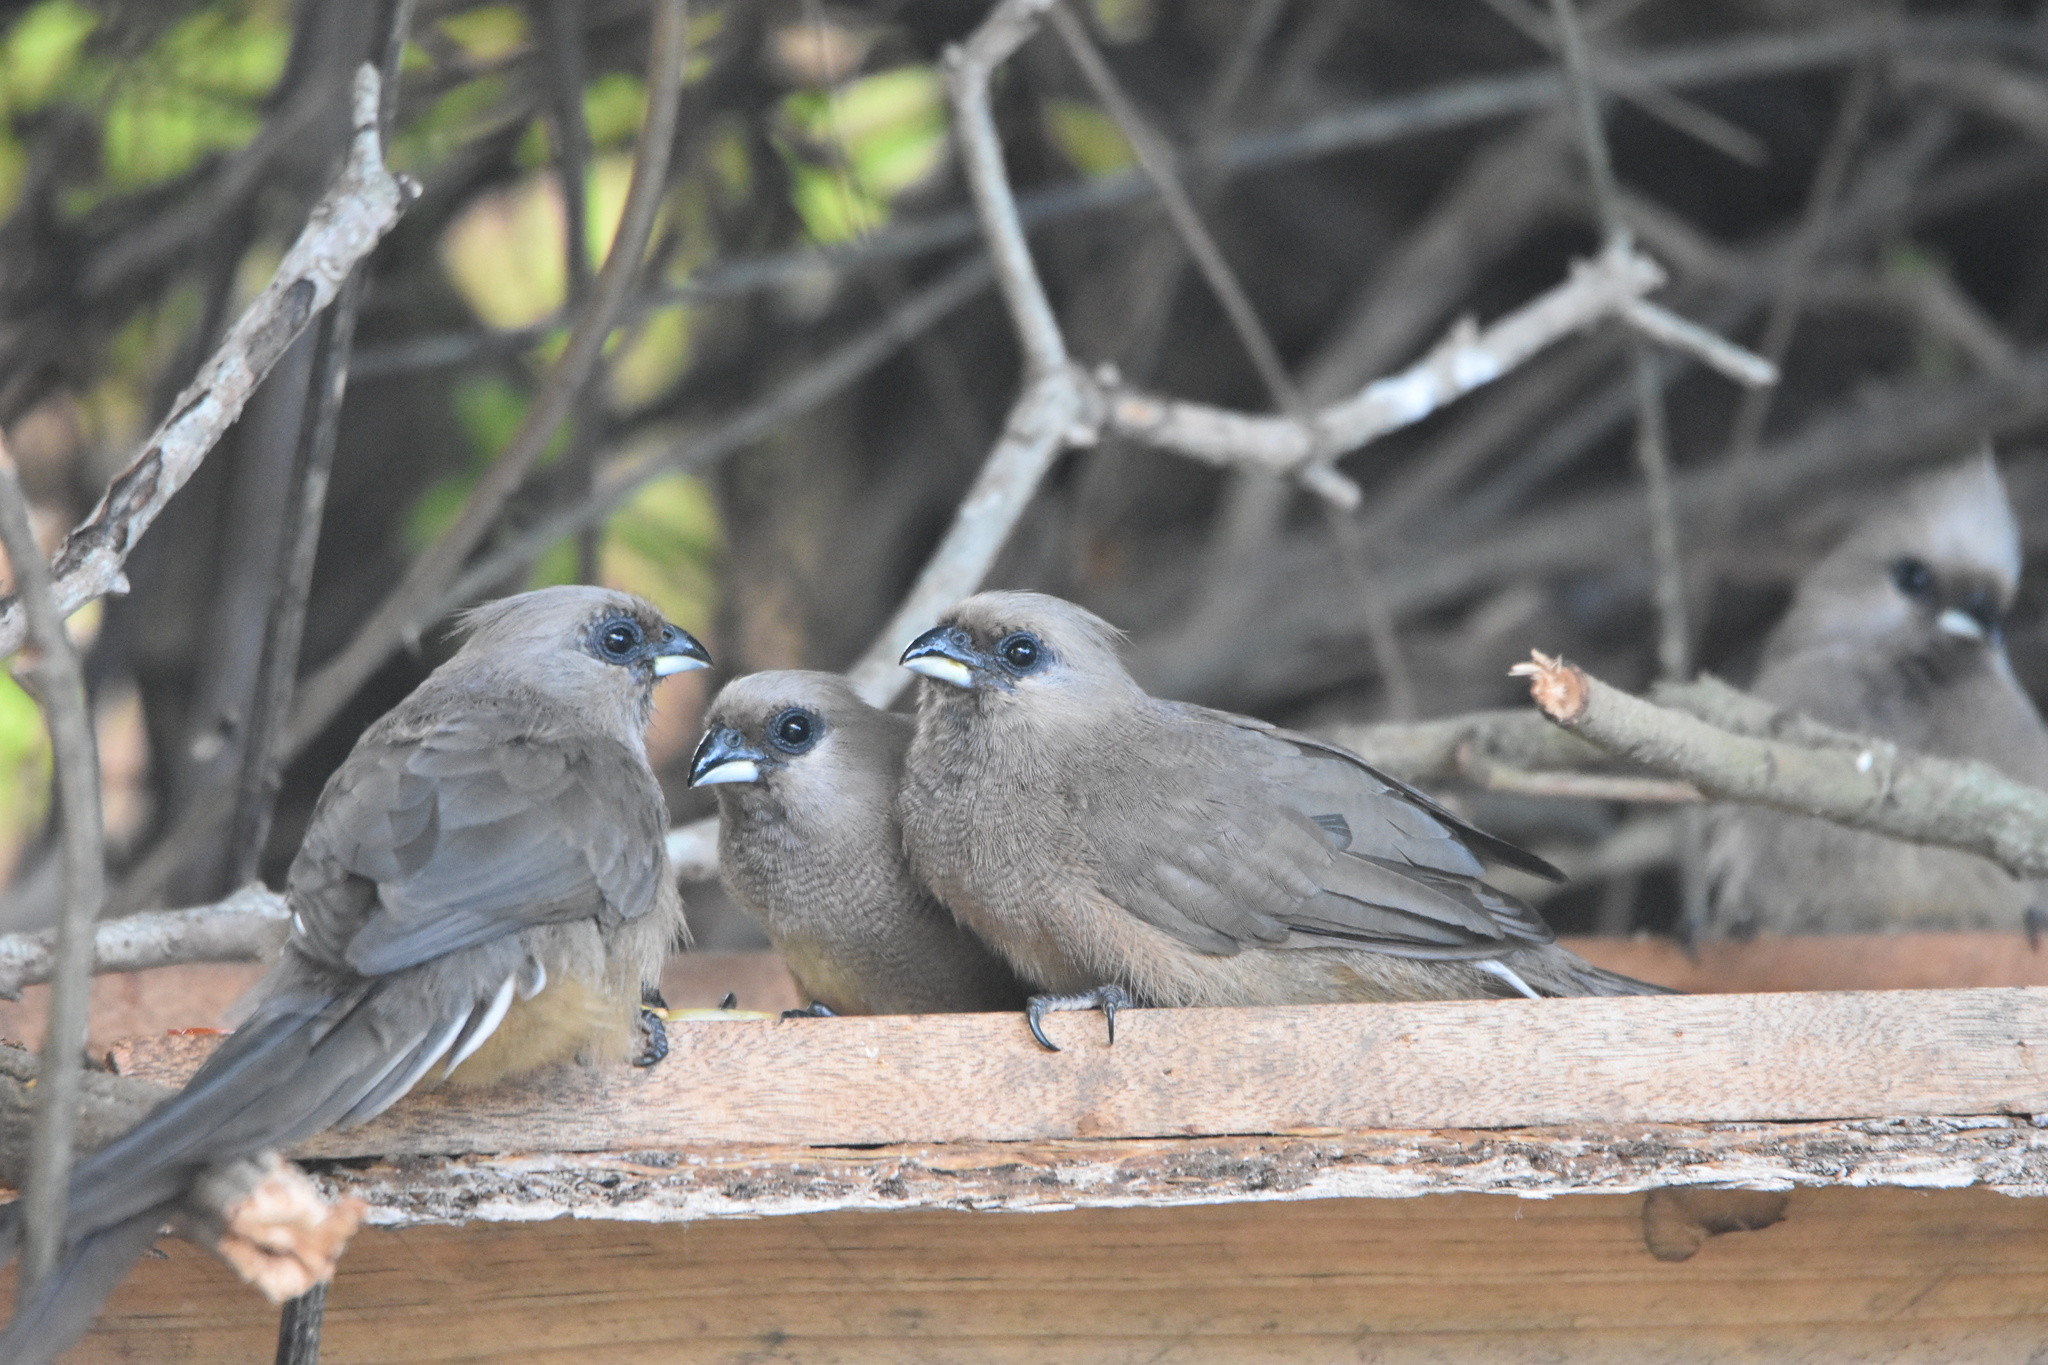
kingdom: Animalia
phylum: Chordata
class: Aves
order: Coliiformes
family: Coliidae
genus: Colius
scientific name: Colius striatus
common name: Speckled mousebird
